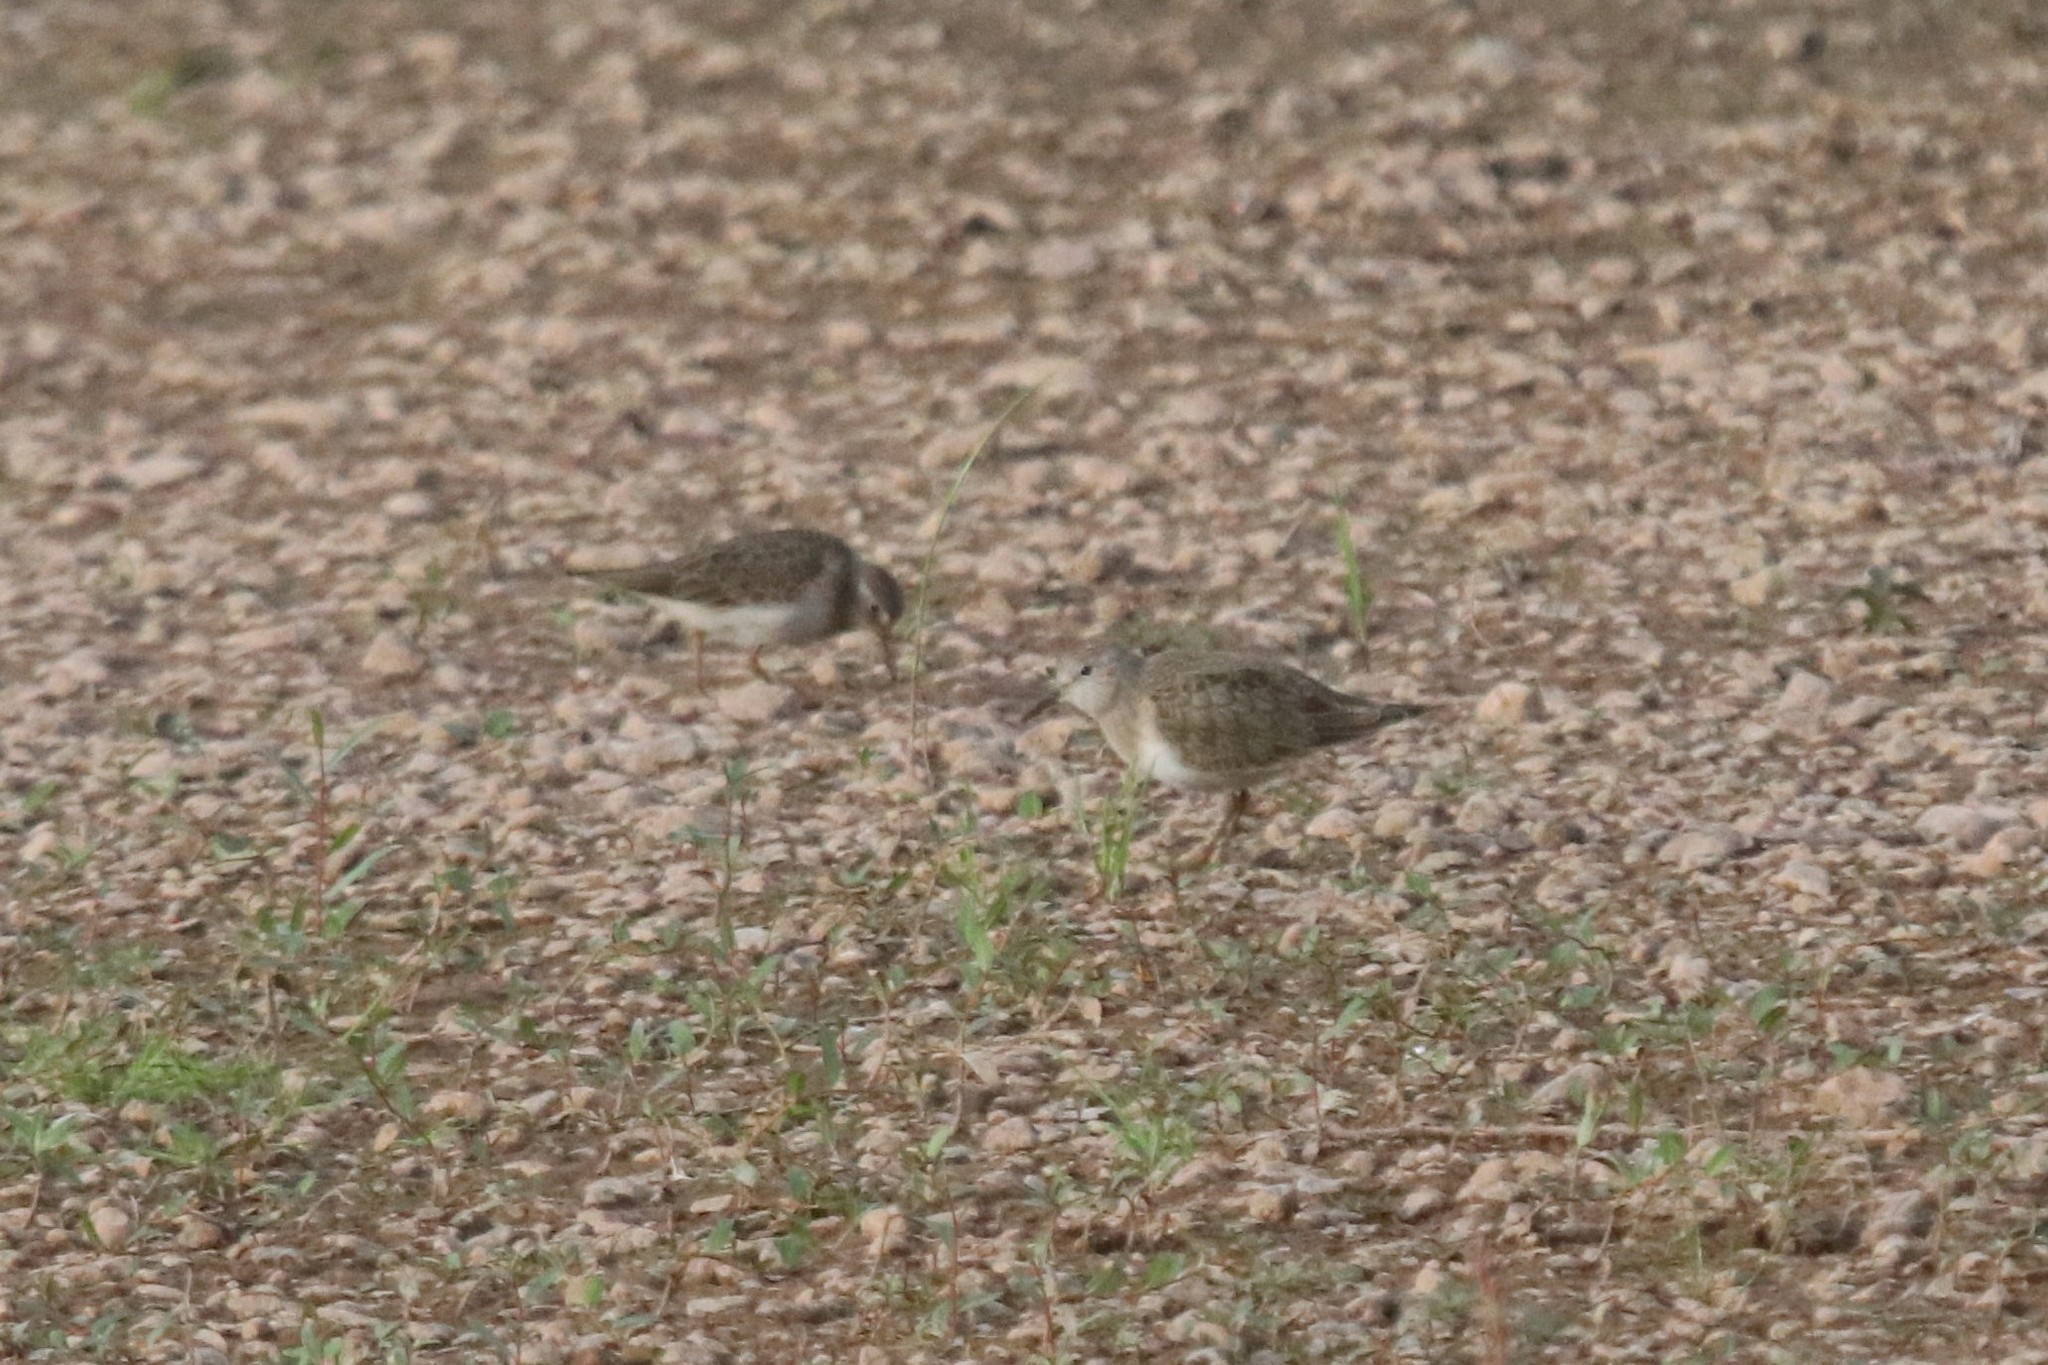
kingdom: Animalia
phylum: Chordata
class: Aves
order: Charadriiformes
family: Scolopacidae
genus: Calidris
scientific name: Calidris temminckii
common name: Temminck's stint
